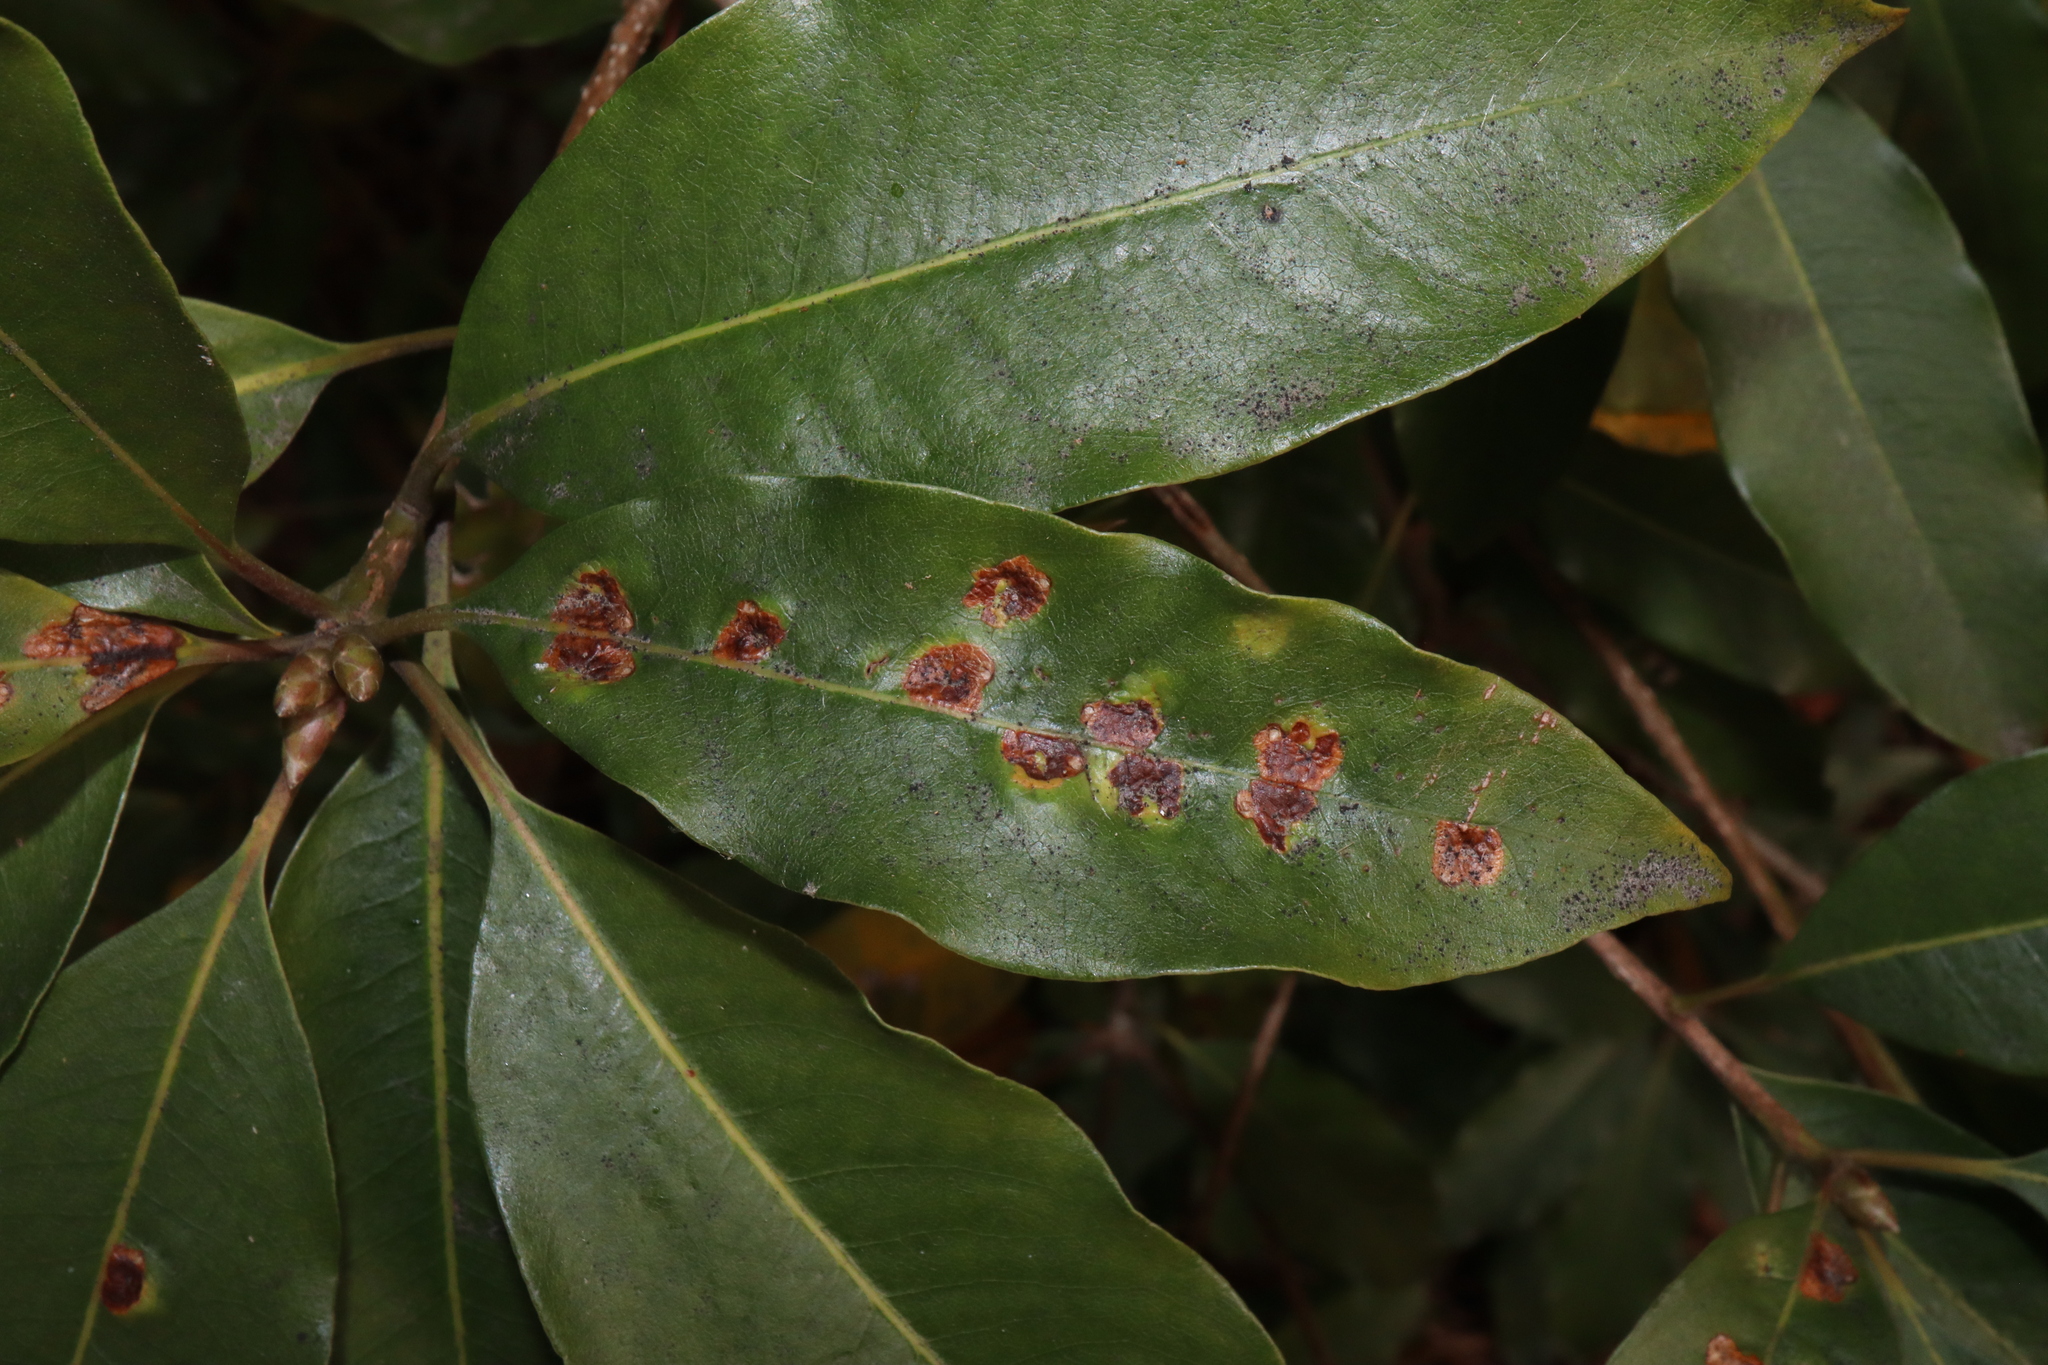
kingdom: Animalia
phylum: Arthropoda
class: Insecta
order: Diptera
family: Agromyzidae
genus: Phytoliriomyza
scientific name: Phytoliriomyza pittosporophylli
